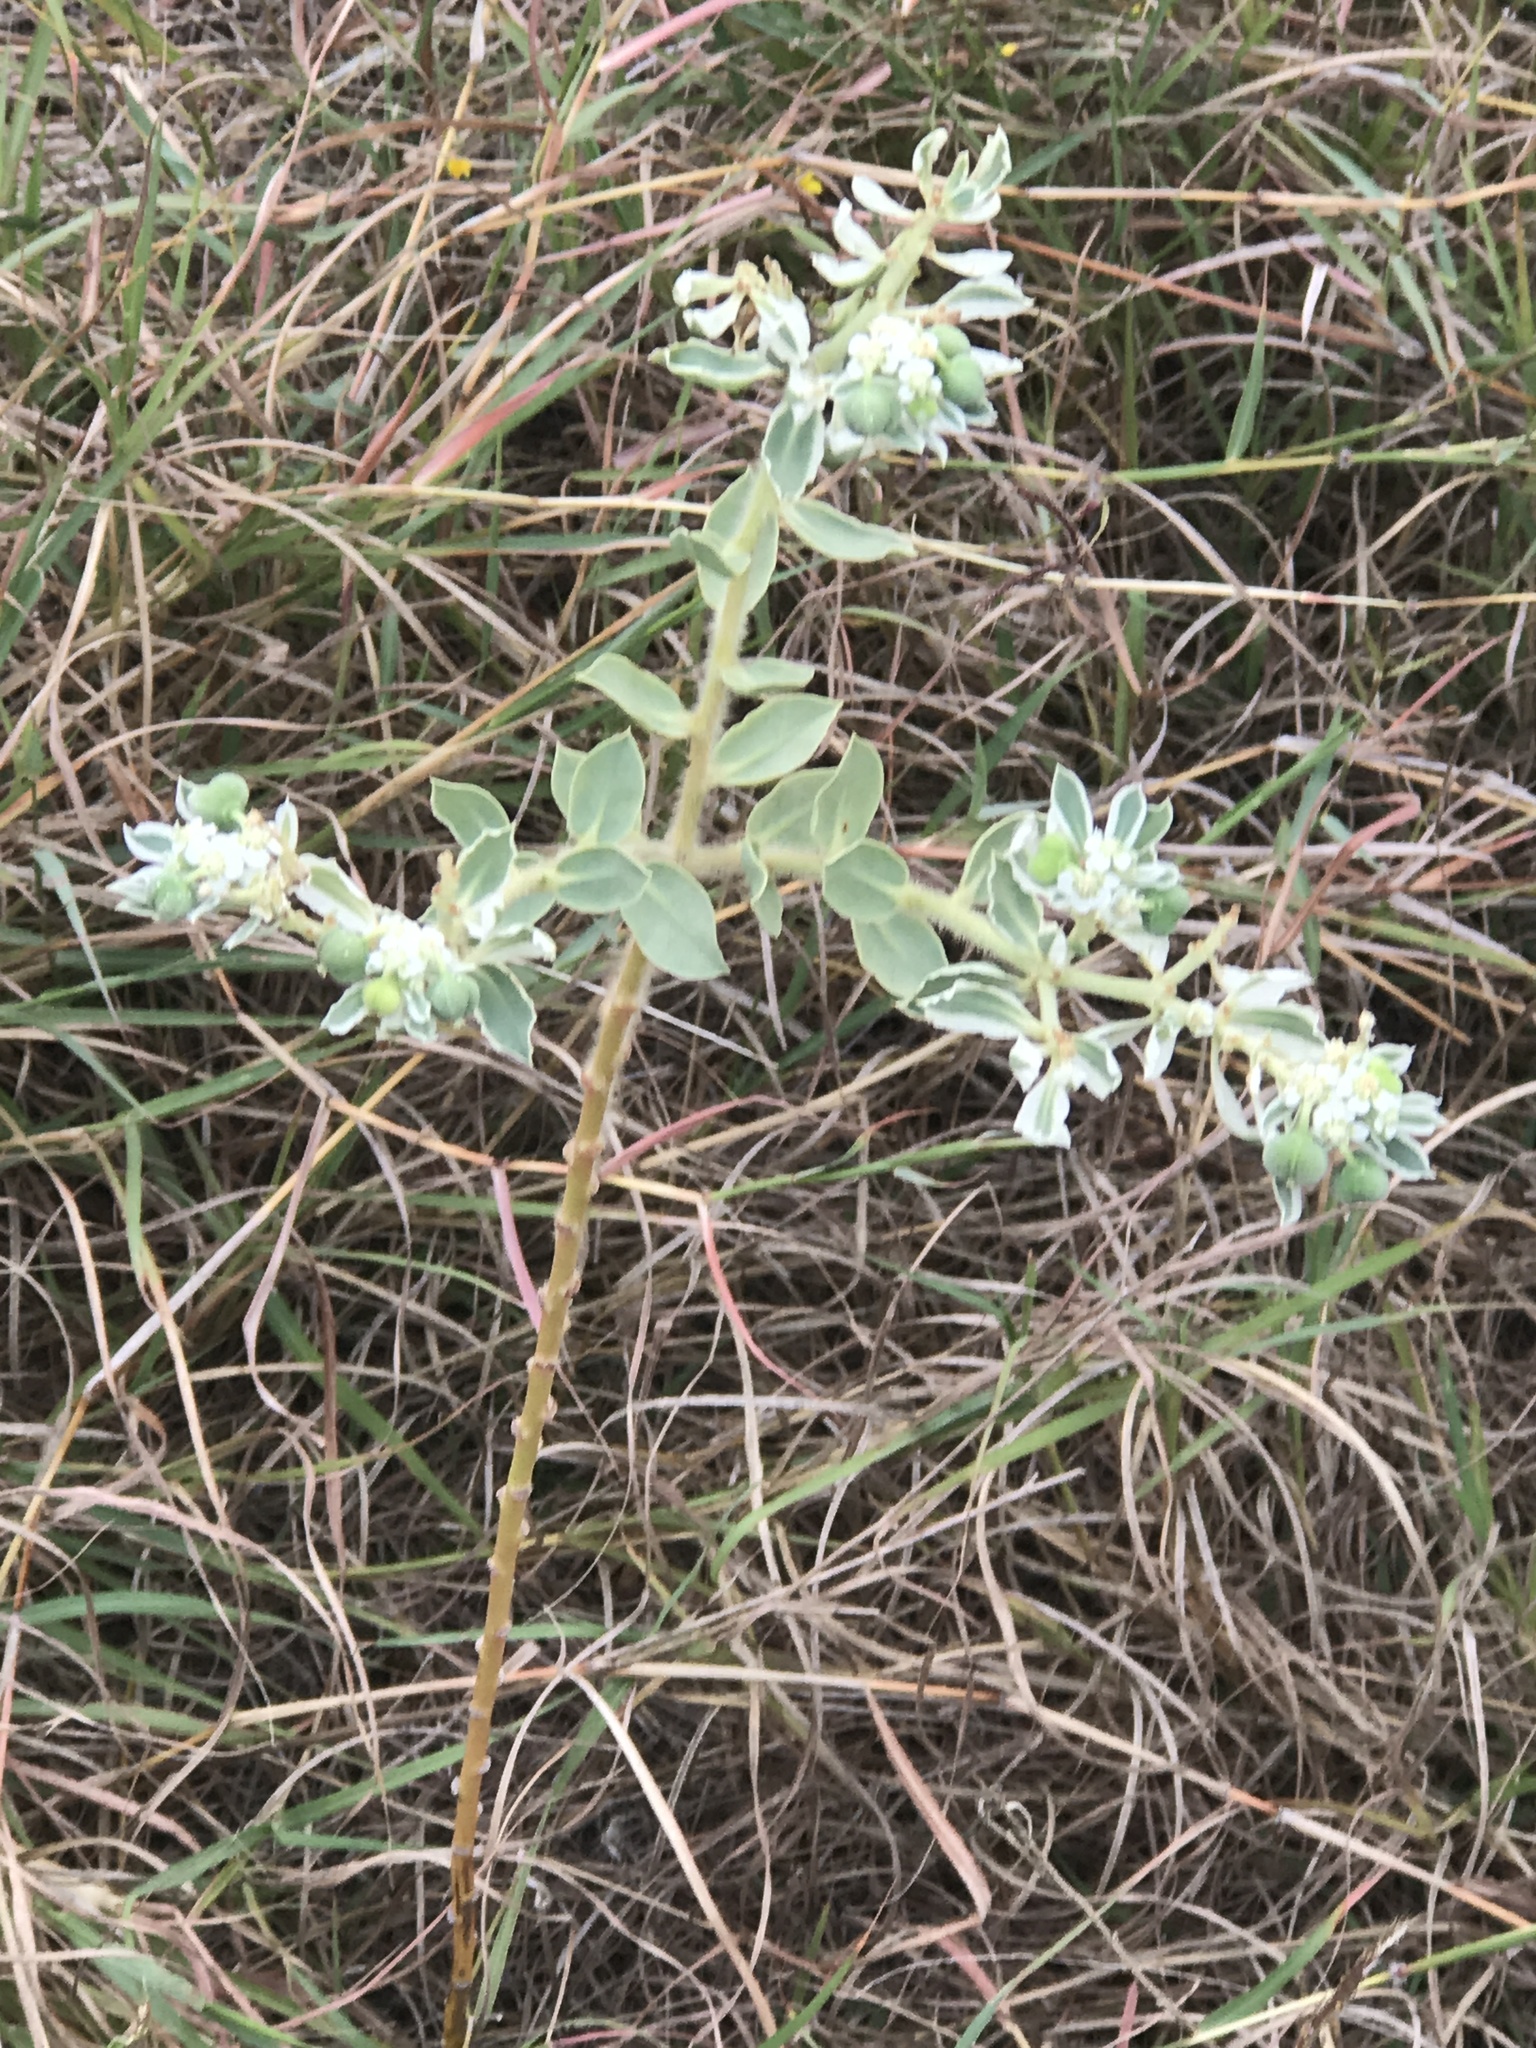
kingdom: Plantae
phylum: Tracheophyta
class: Magnoliopsida
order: Malpighiales
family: Euphorbiaceae
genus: Euphorbia
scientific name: Euphorbia marginata
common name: Ghostweed
